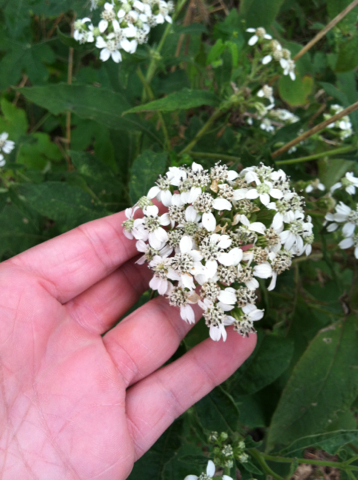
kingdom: Plantae
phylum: Tracheophyta
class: Magnoliopsida
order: Asterales
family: Asteraceae
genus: Verbesina
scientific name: Verbesina virginica
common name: Frostweed
